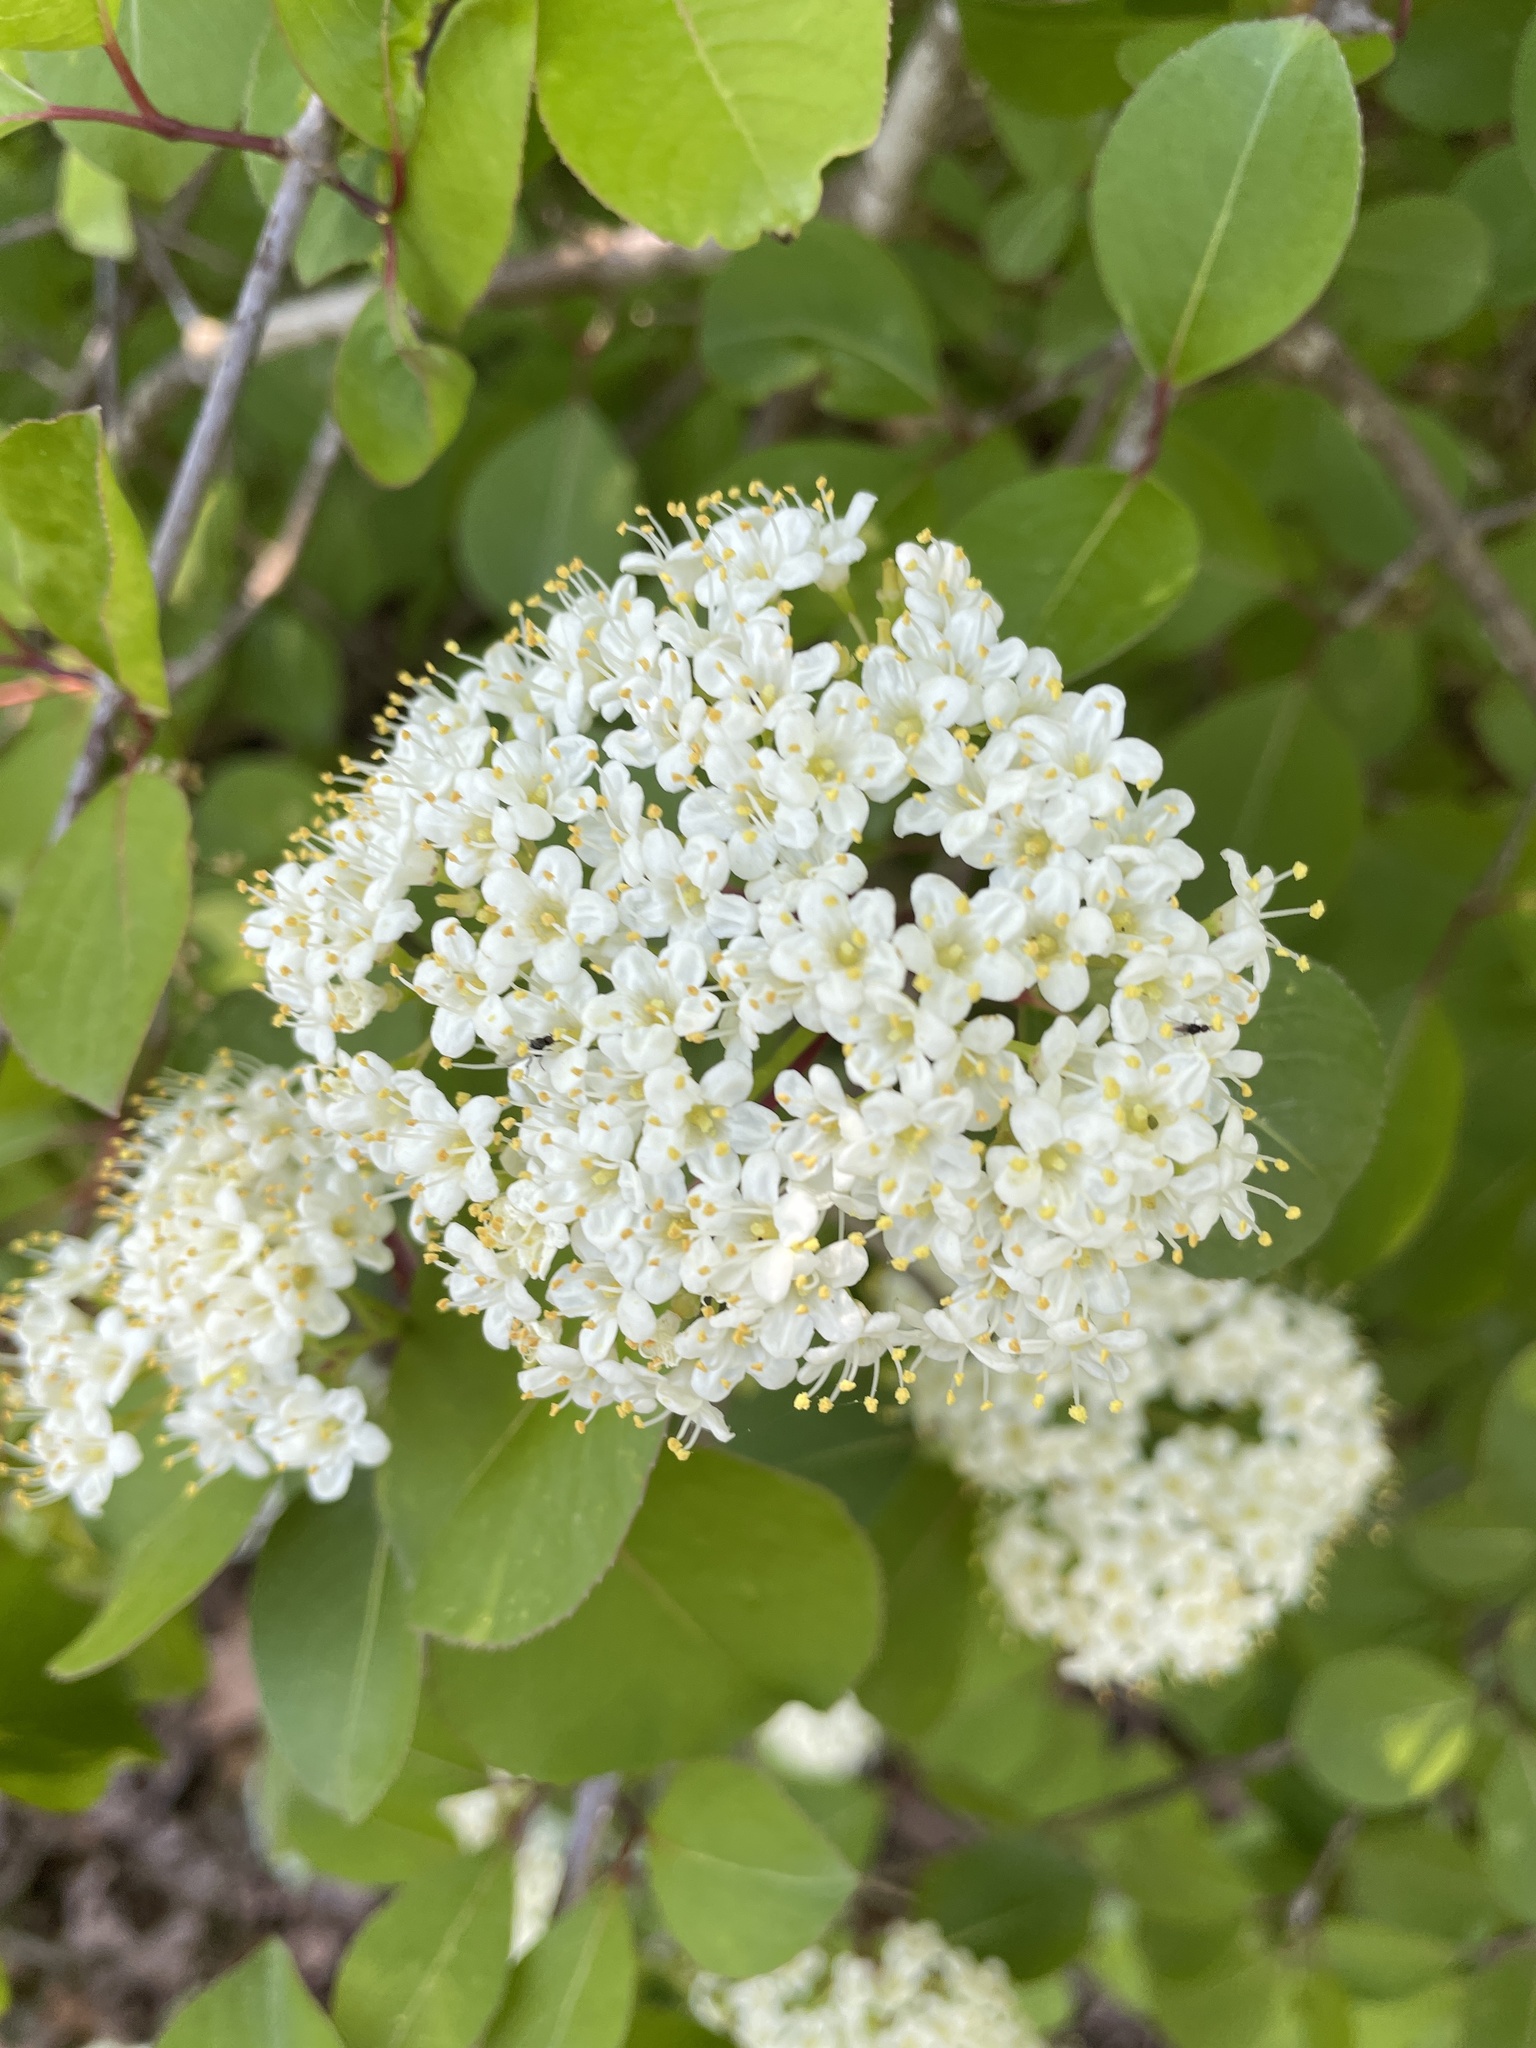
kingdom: Plantae
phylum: Tracheophyta
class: Magnoliopsida
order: Dipsacales
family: Viburnaceae
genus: Viburnum
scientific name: Viburnum prunifolium
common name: Black haw
